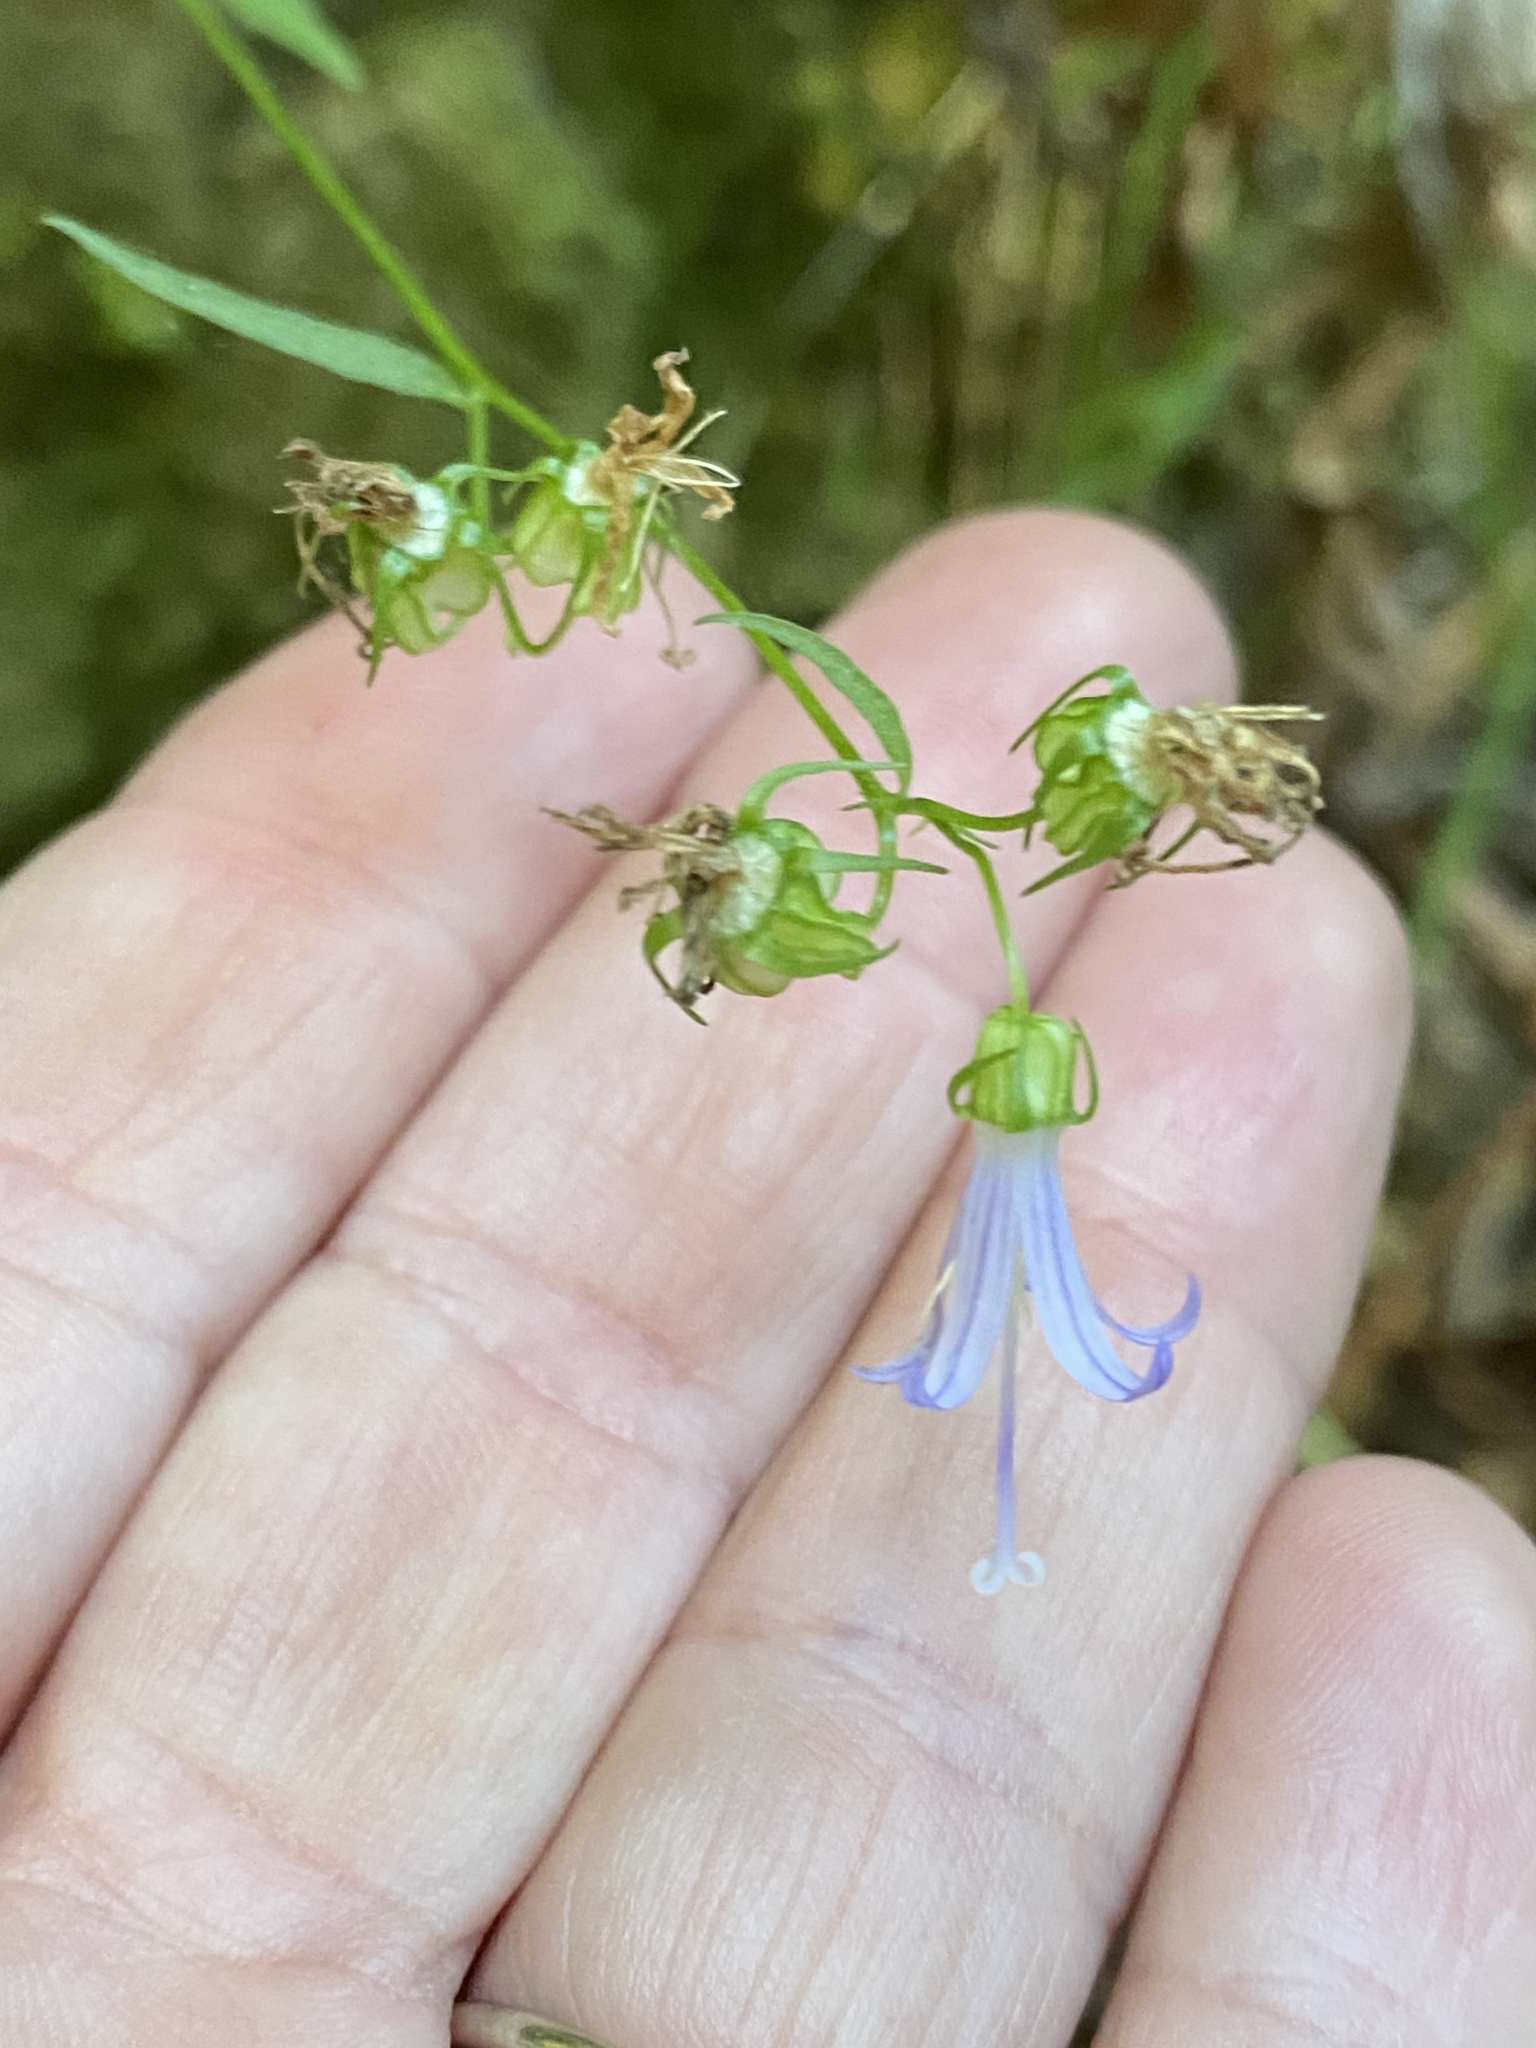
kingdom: Plantae
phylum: Tracheophyta
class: Magnoliopsida
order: Asterales
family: Campanulaceae
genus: Smithiastrum
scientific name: Smithiastrum prenanthoides
